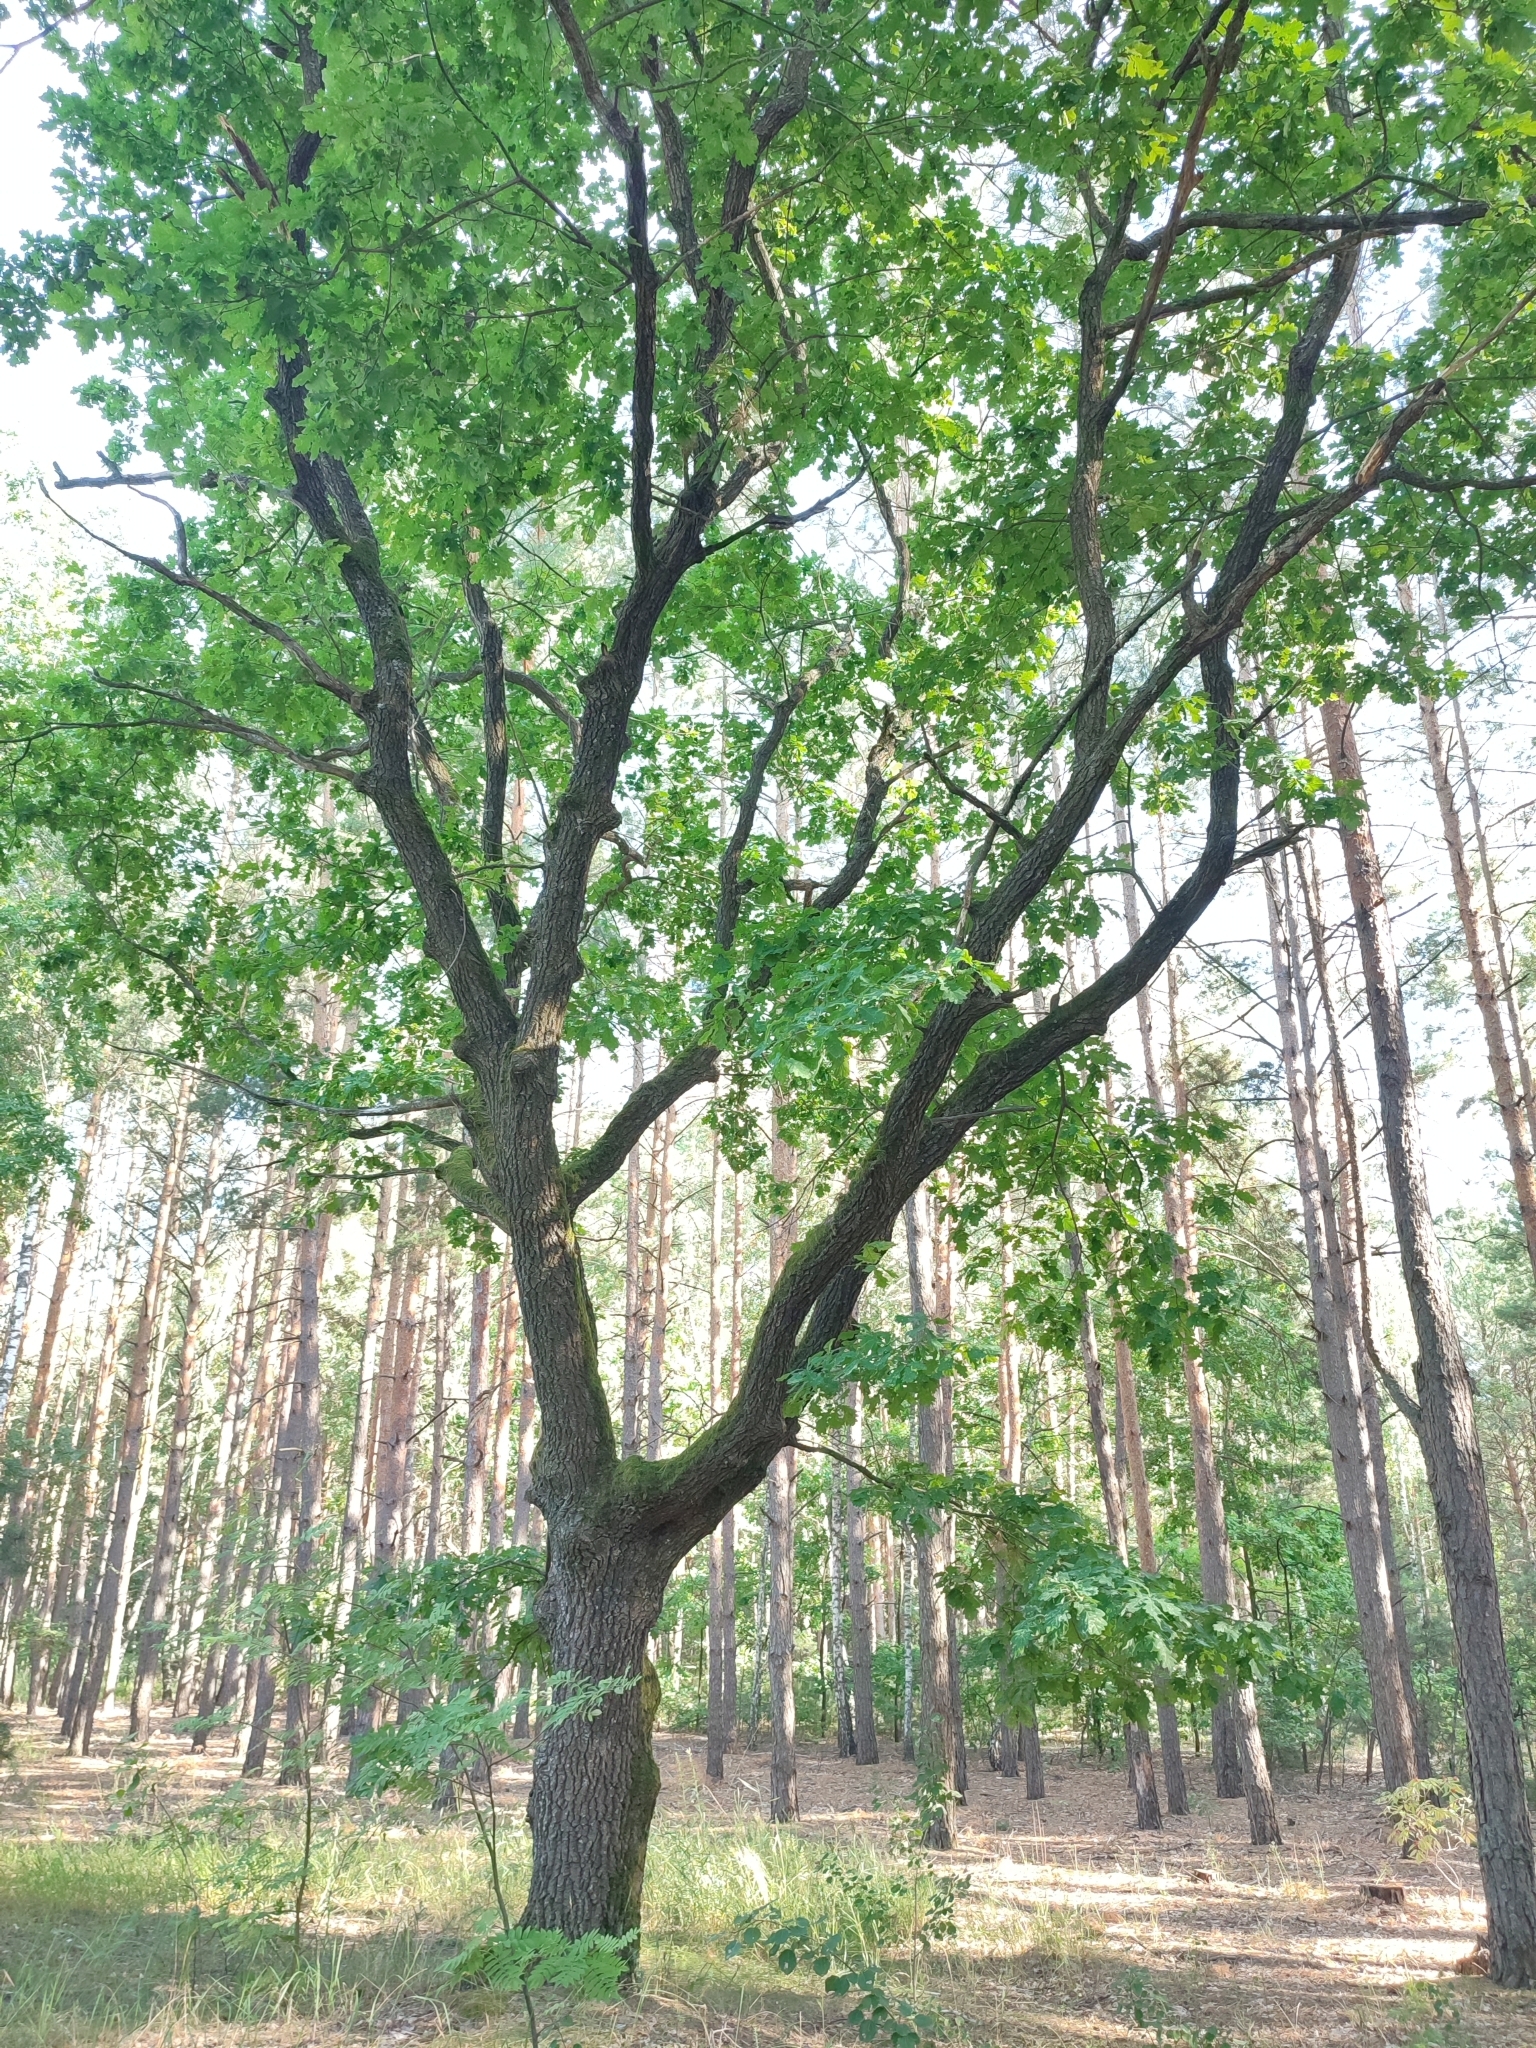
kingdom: Plantae
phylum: Tracheophyta
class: Magnoliopsida
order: Fagales
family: Fagaceae
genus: Quercus
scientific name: Quercus robur
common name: Pedunculate oak
